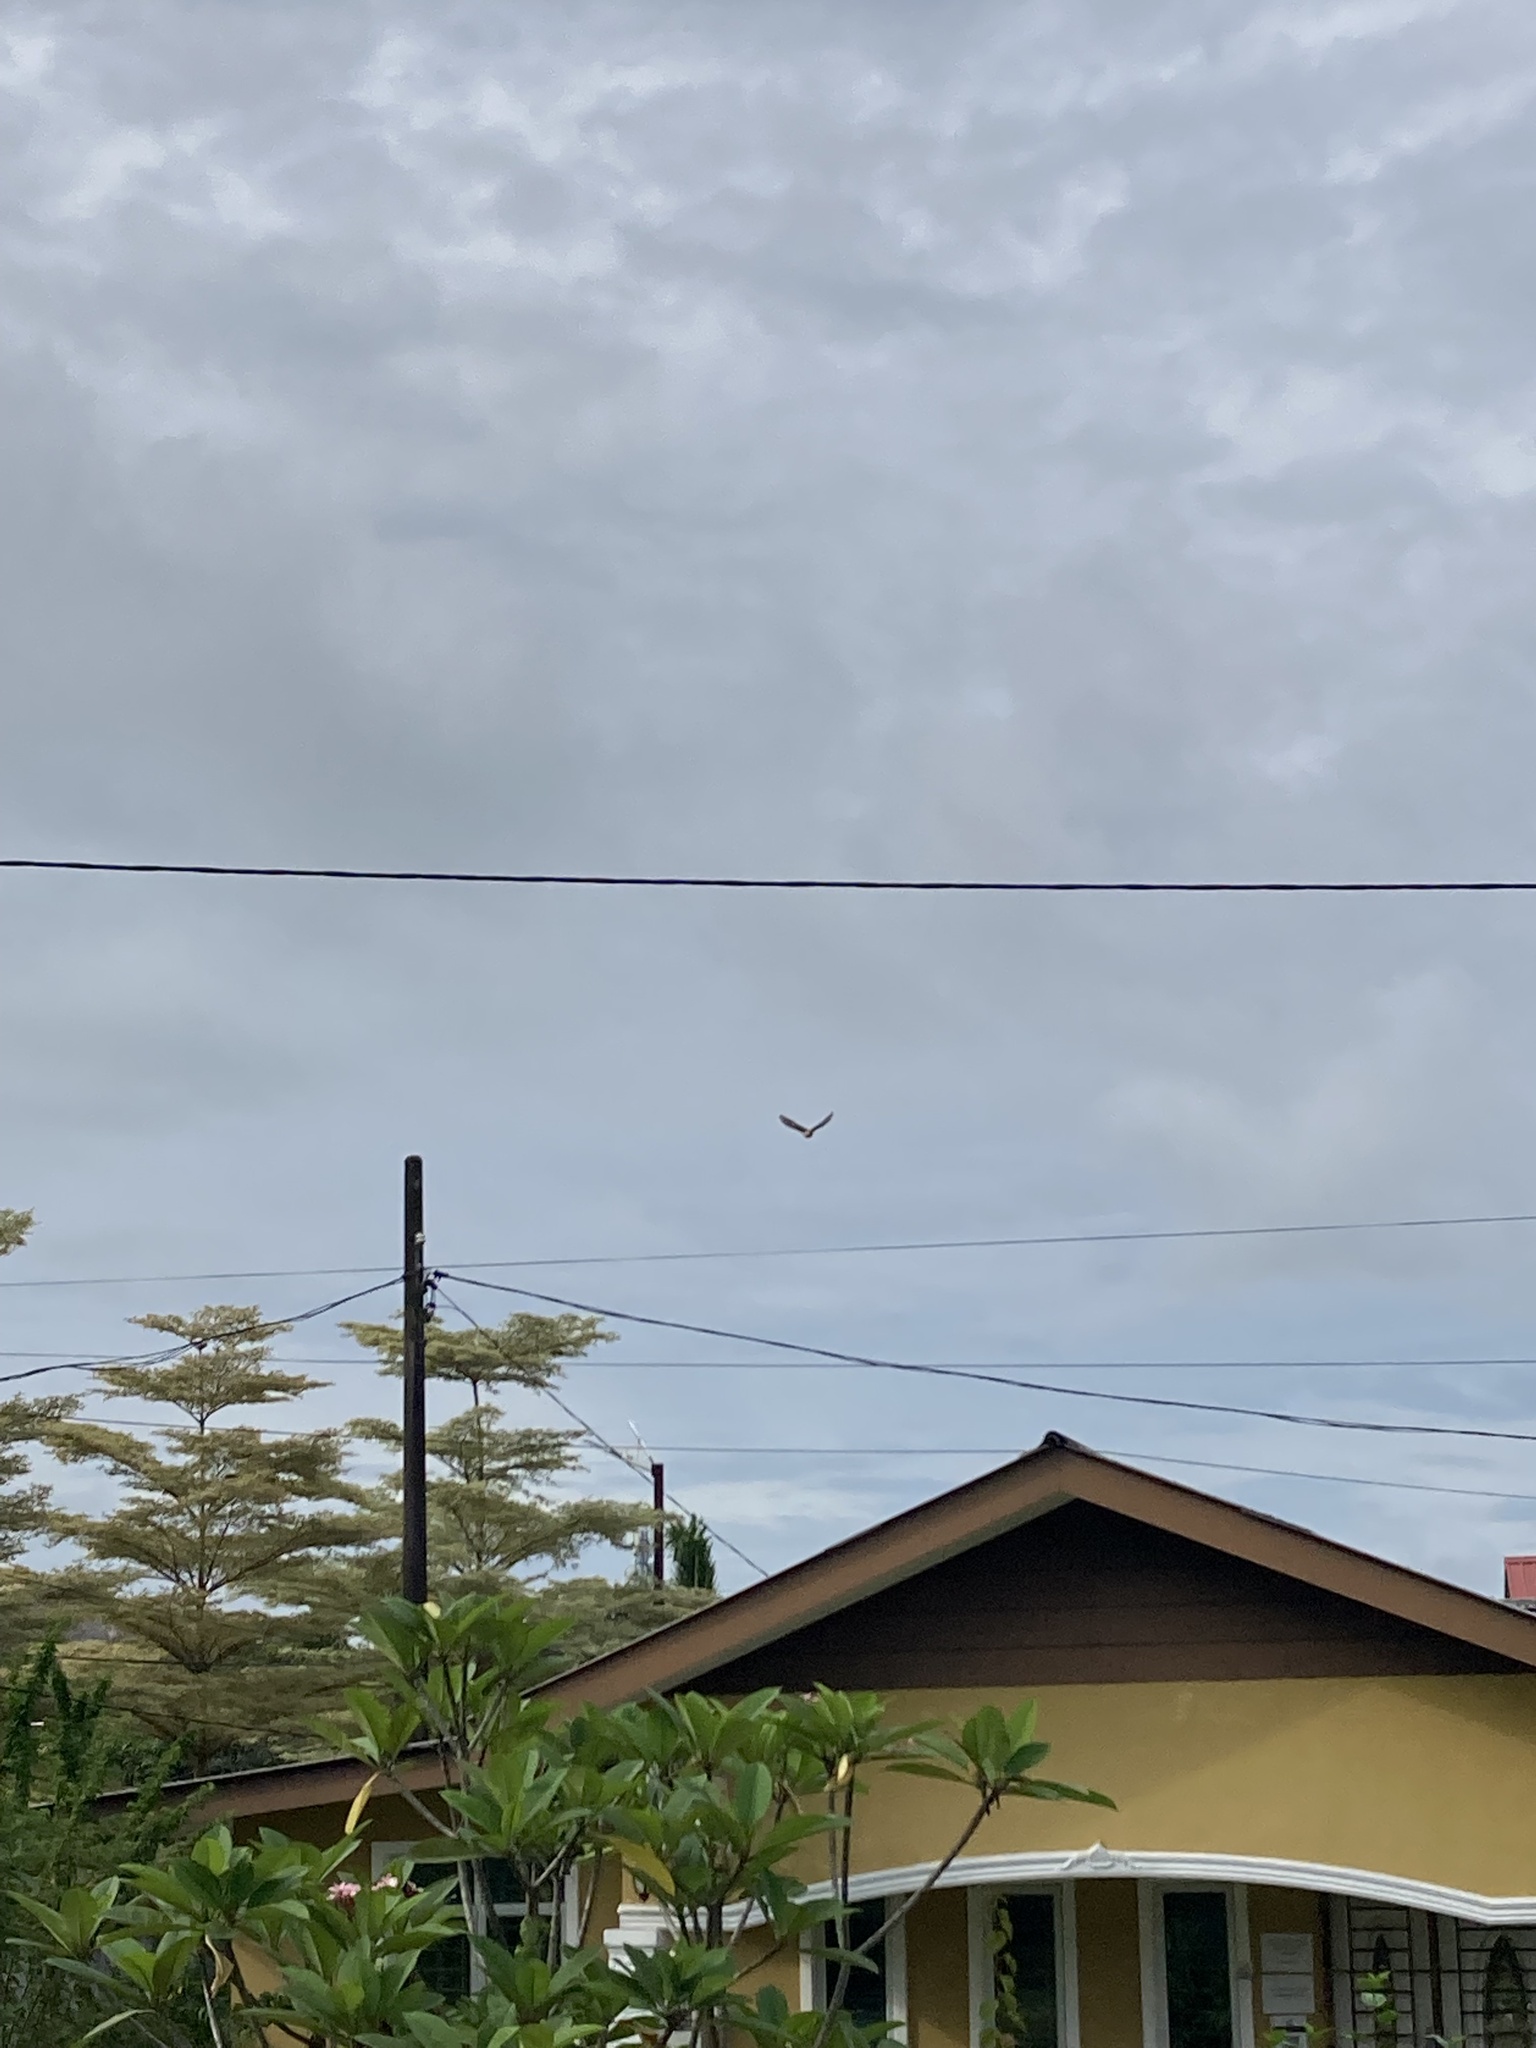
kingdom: Animalia
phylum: Chordata
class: Aves
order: Passeriformes
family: Laniidae
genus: Lanius
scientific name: Lanius cristatus
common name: Brown shrike
